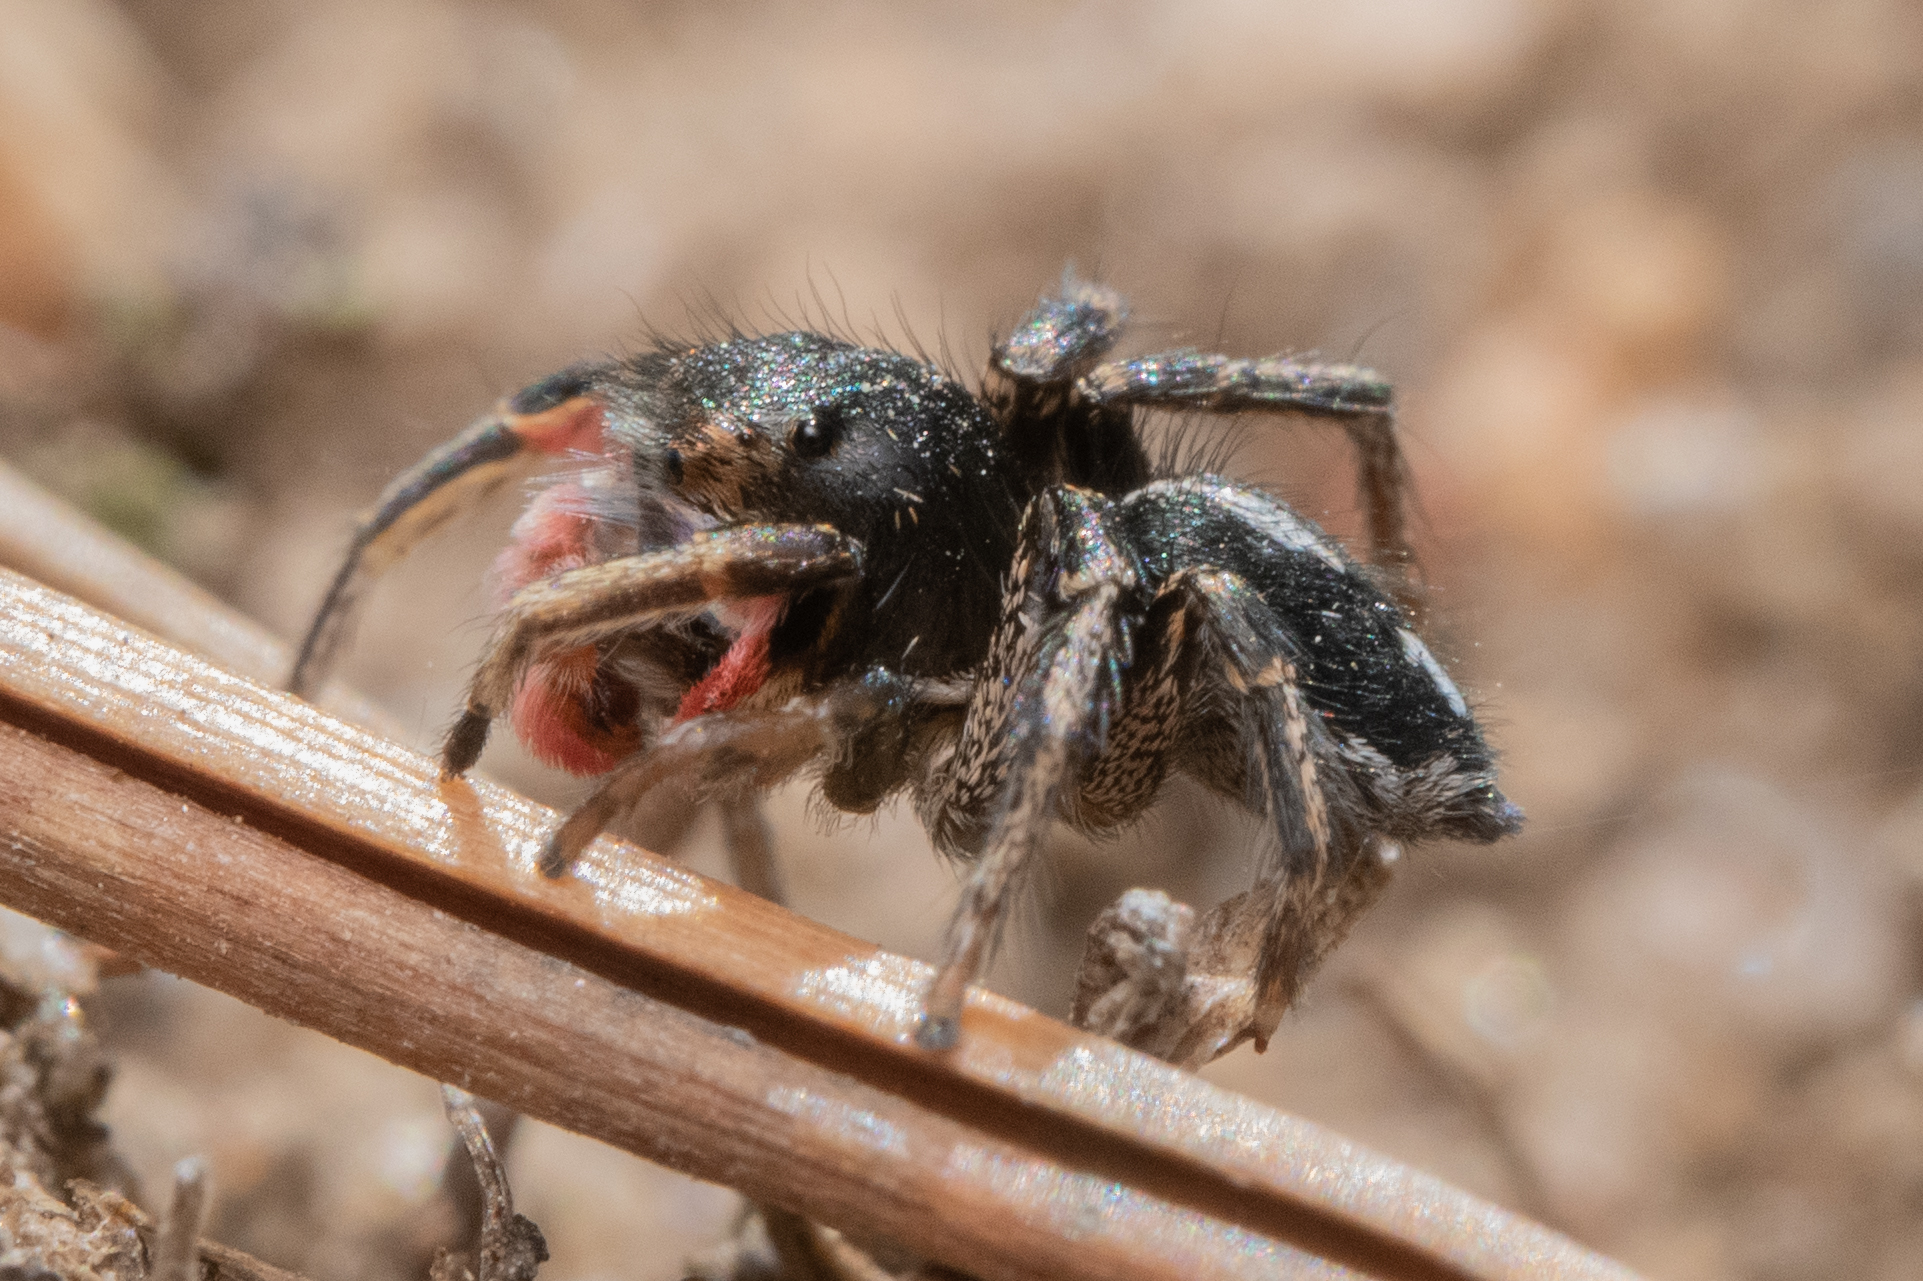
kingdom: Animalia
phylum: Arthropoda
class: Arachnida
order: Araneae
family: Salticidae
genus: Habronattus
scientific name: Habronattus americanus
